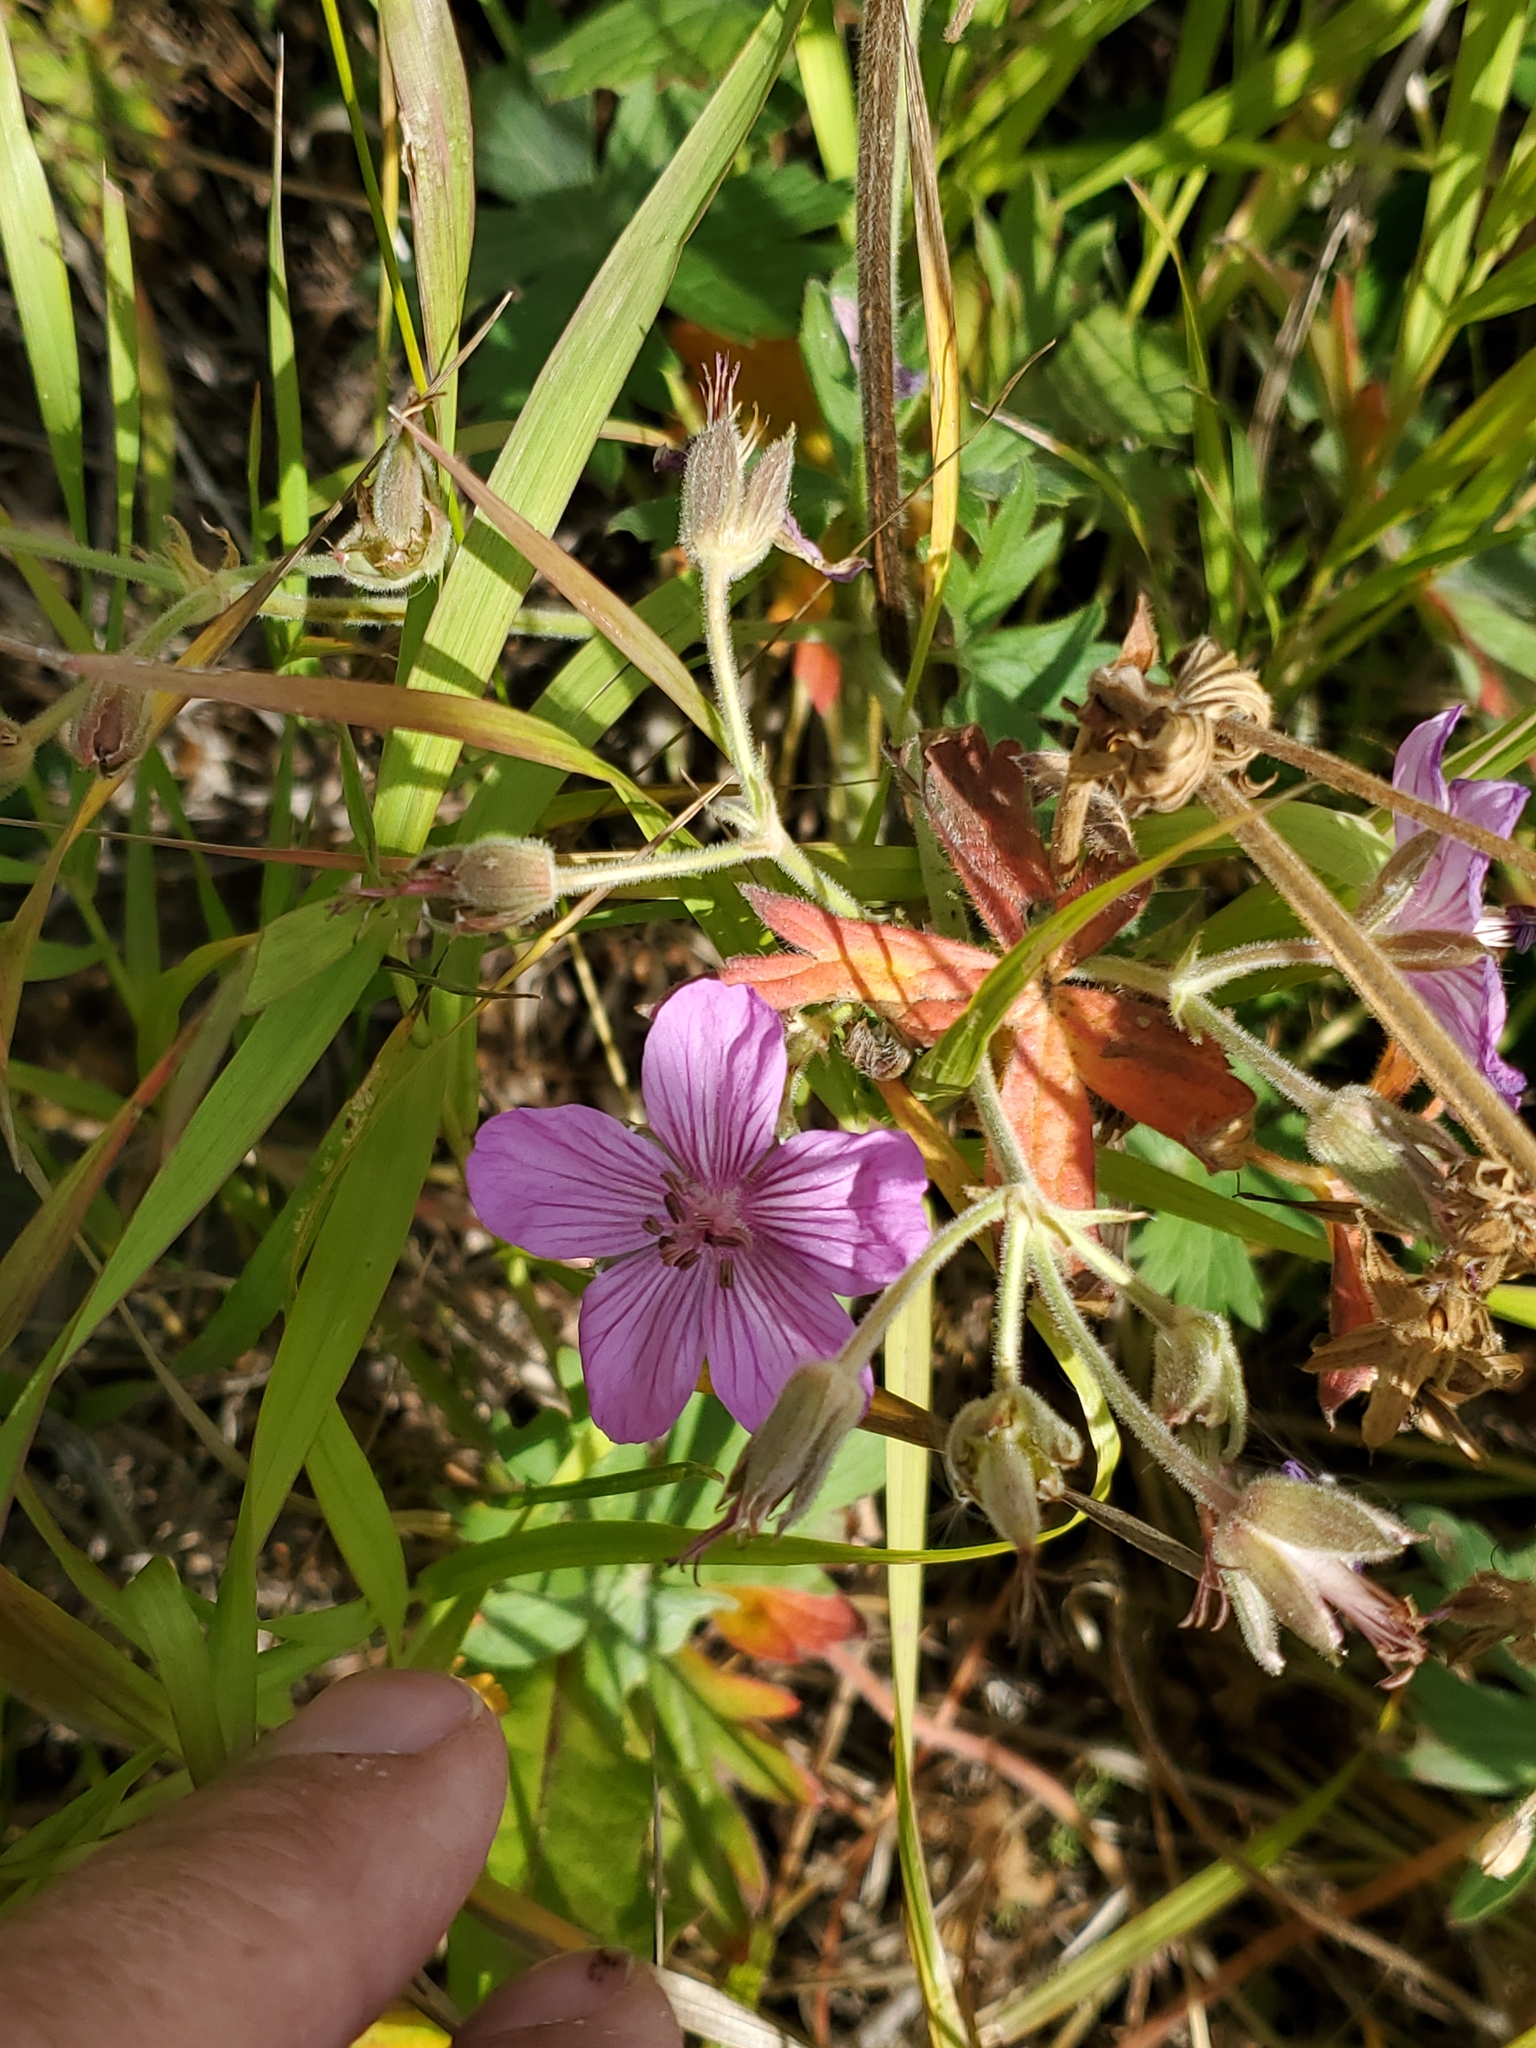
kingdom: Plantae
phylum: Tracheophyta
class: Magnoliopsida
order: Geraniales
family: Geraniaceae
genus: Geranium
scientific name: Geranium viscosissimum
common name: Purple geranium
